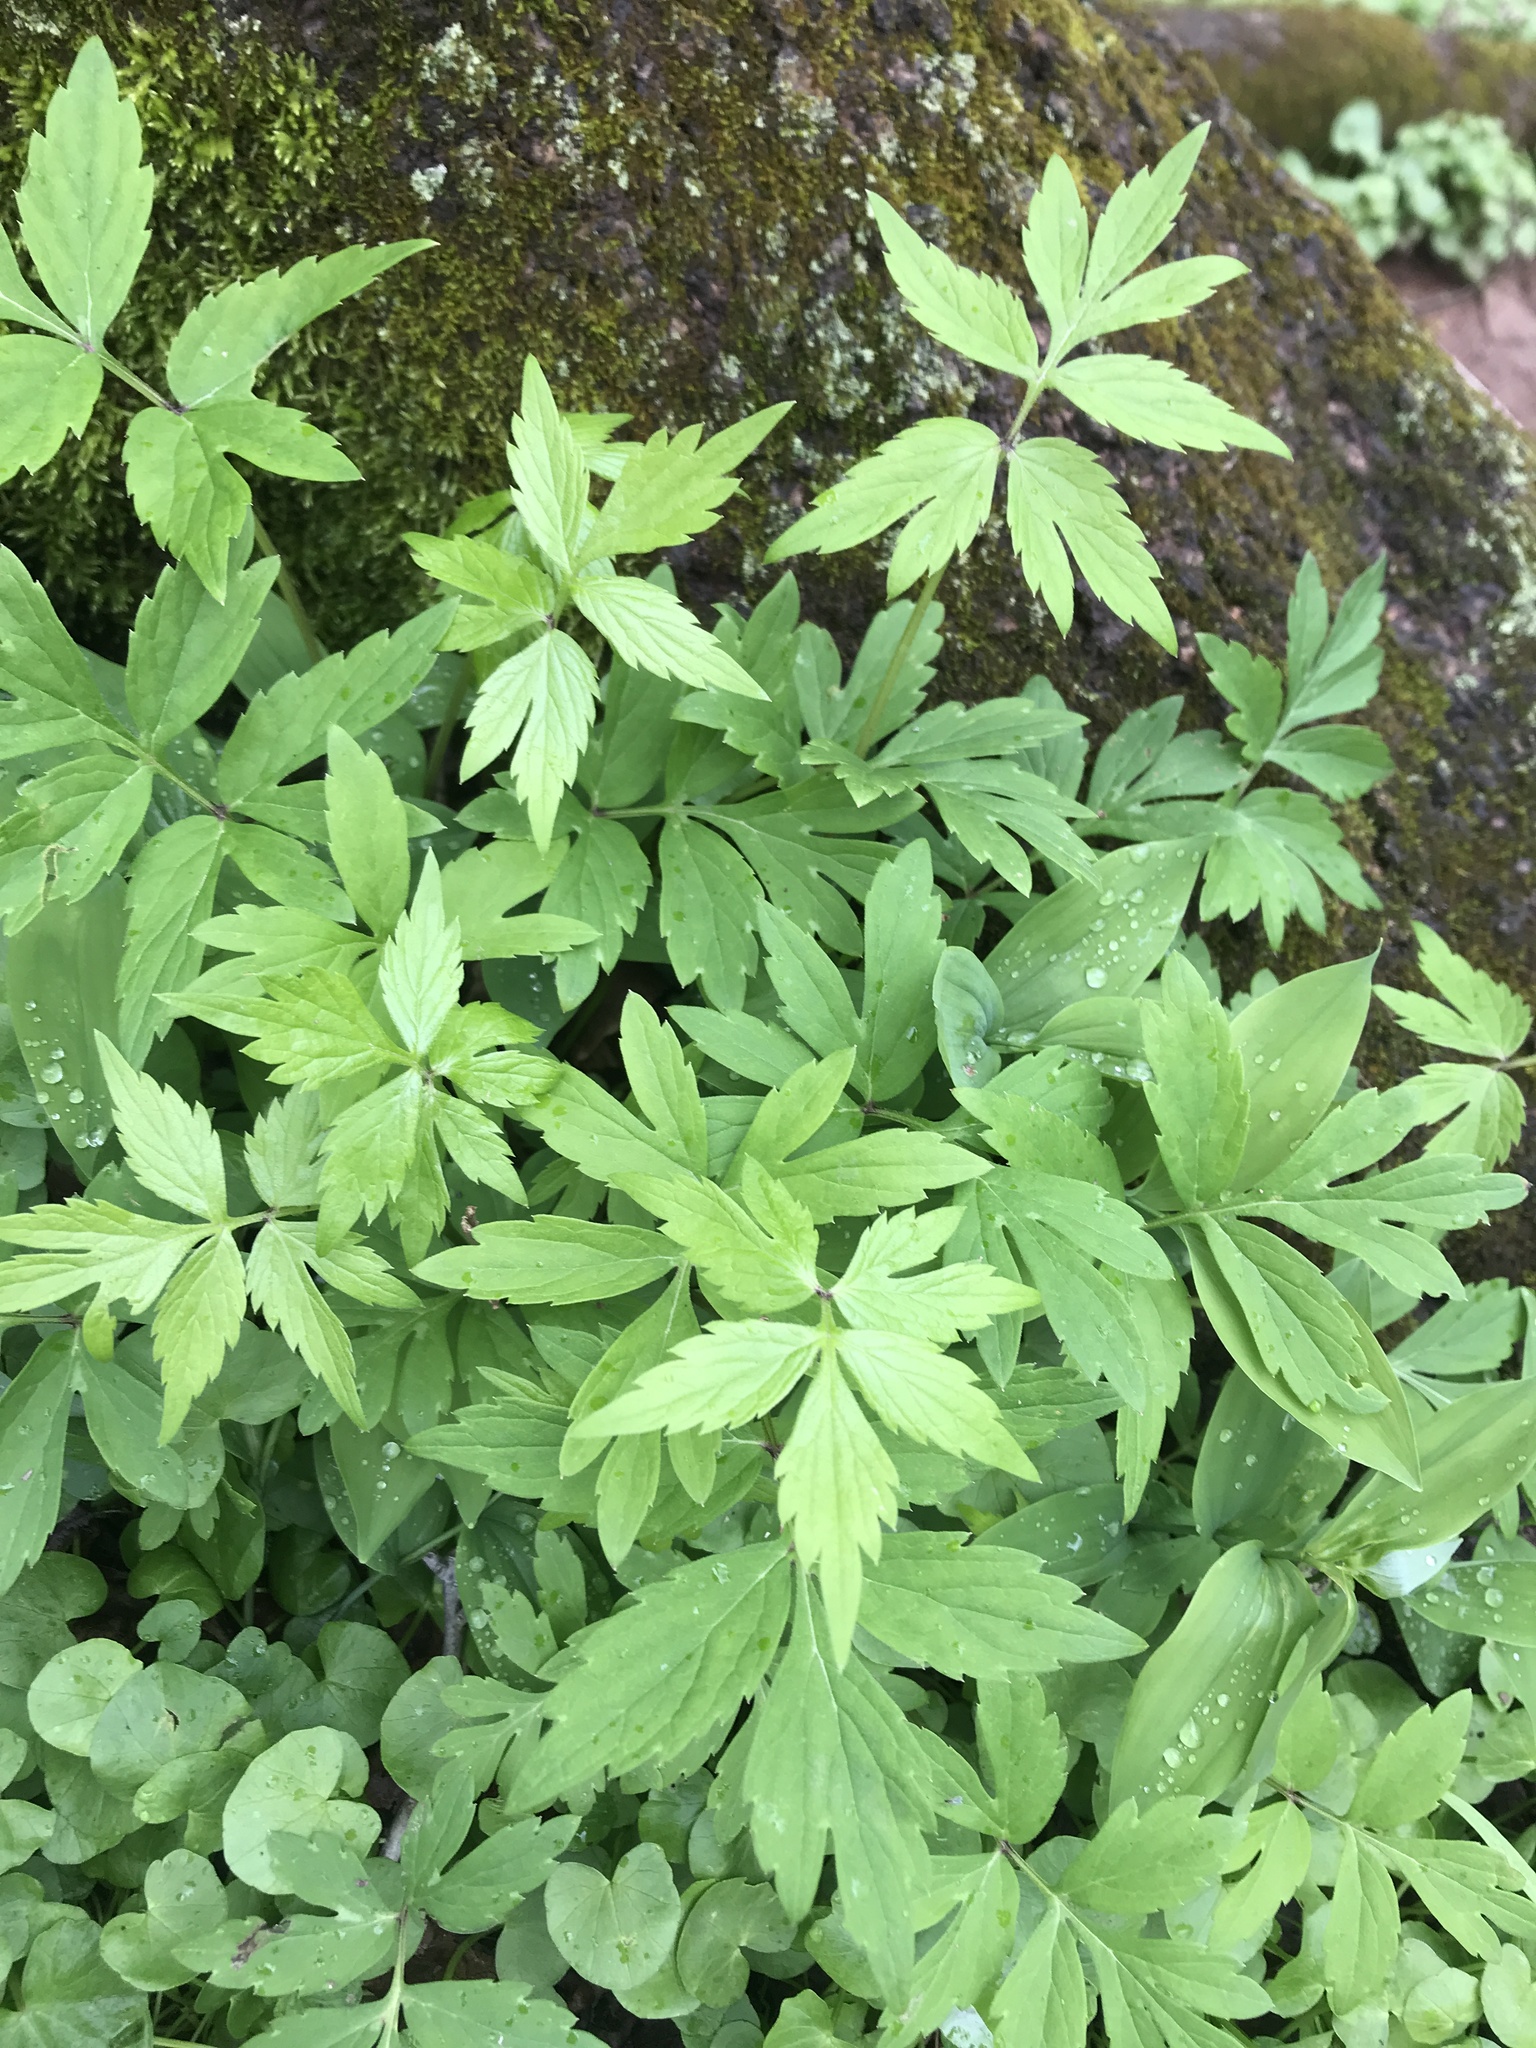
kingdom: Plantae
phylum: Tracheophyta
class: Magnoliopsida
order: Boraginales
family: Hydrophyllaceae
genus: Hydrophyllum
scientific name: Hydrophyllum virginianum
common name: Virginia waterleaf
